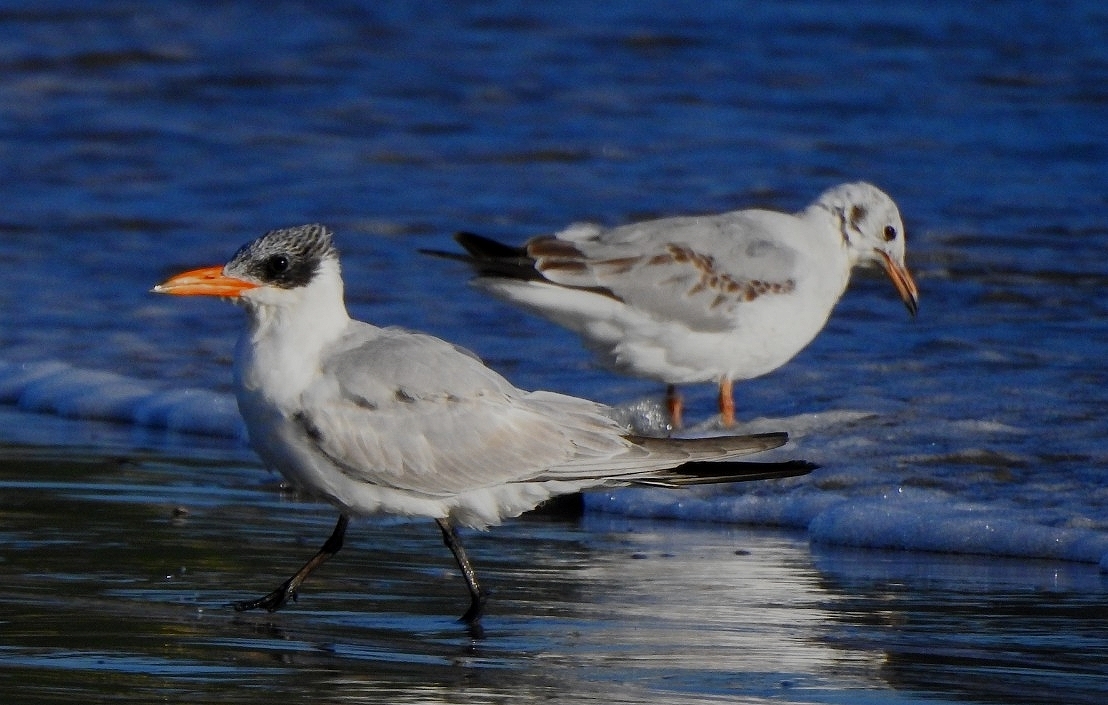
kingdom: Animalia
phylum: Chordata
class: Aves
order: Charadriiformes
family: Laridae
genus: Hydroprogne
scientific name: Hydroprogne caspia
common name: Caspian tern
